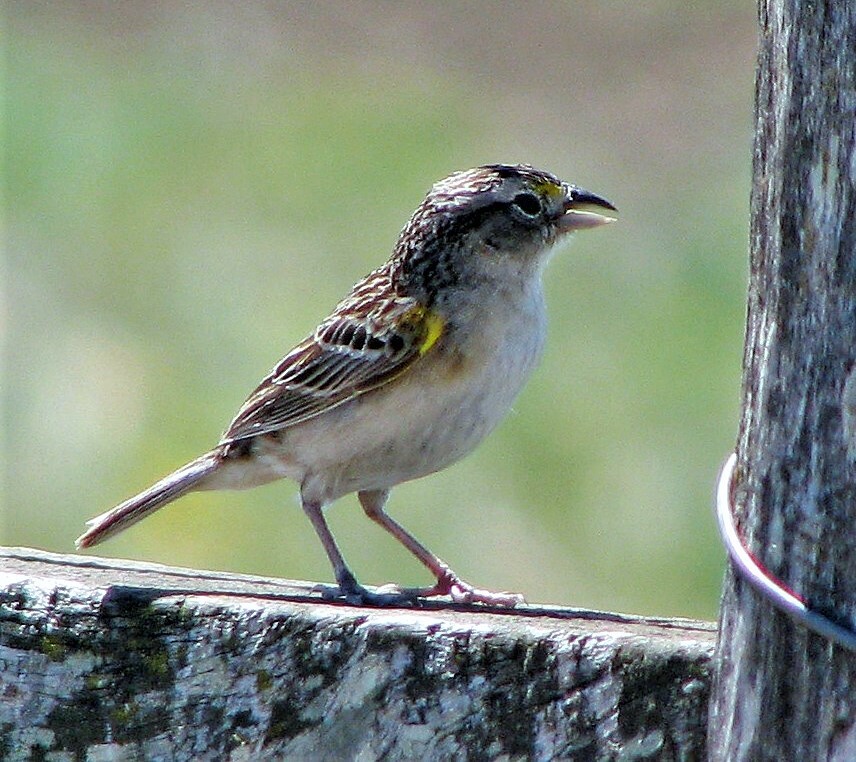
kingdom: Animalia
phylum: Chordata
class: Aves
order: Passeriformes
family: Passerellidae
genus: Ammodramus
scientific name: Ammodramus humeralis
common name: Grassland sparrow
